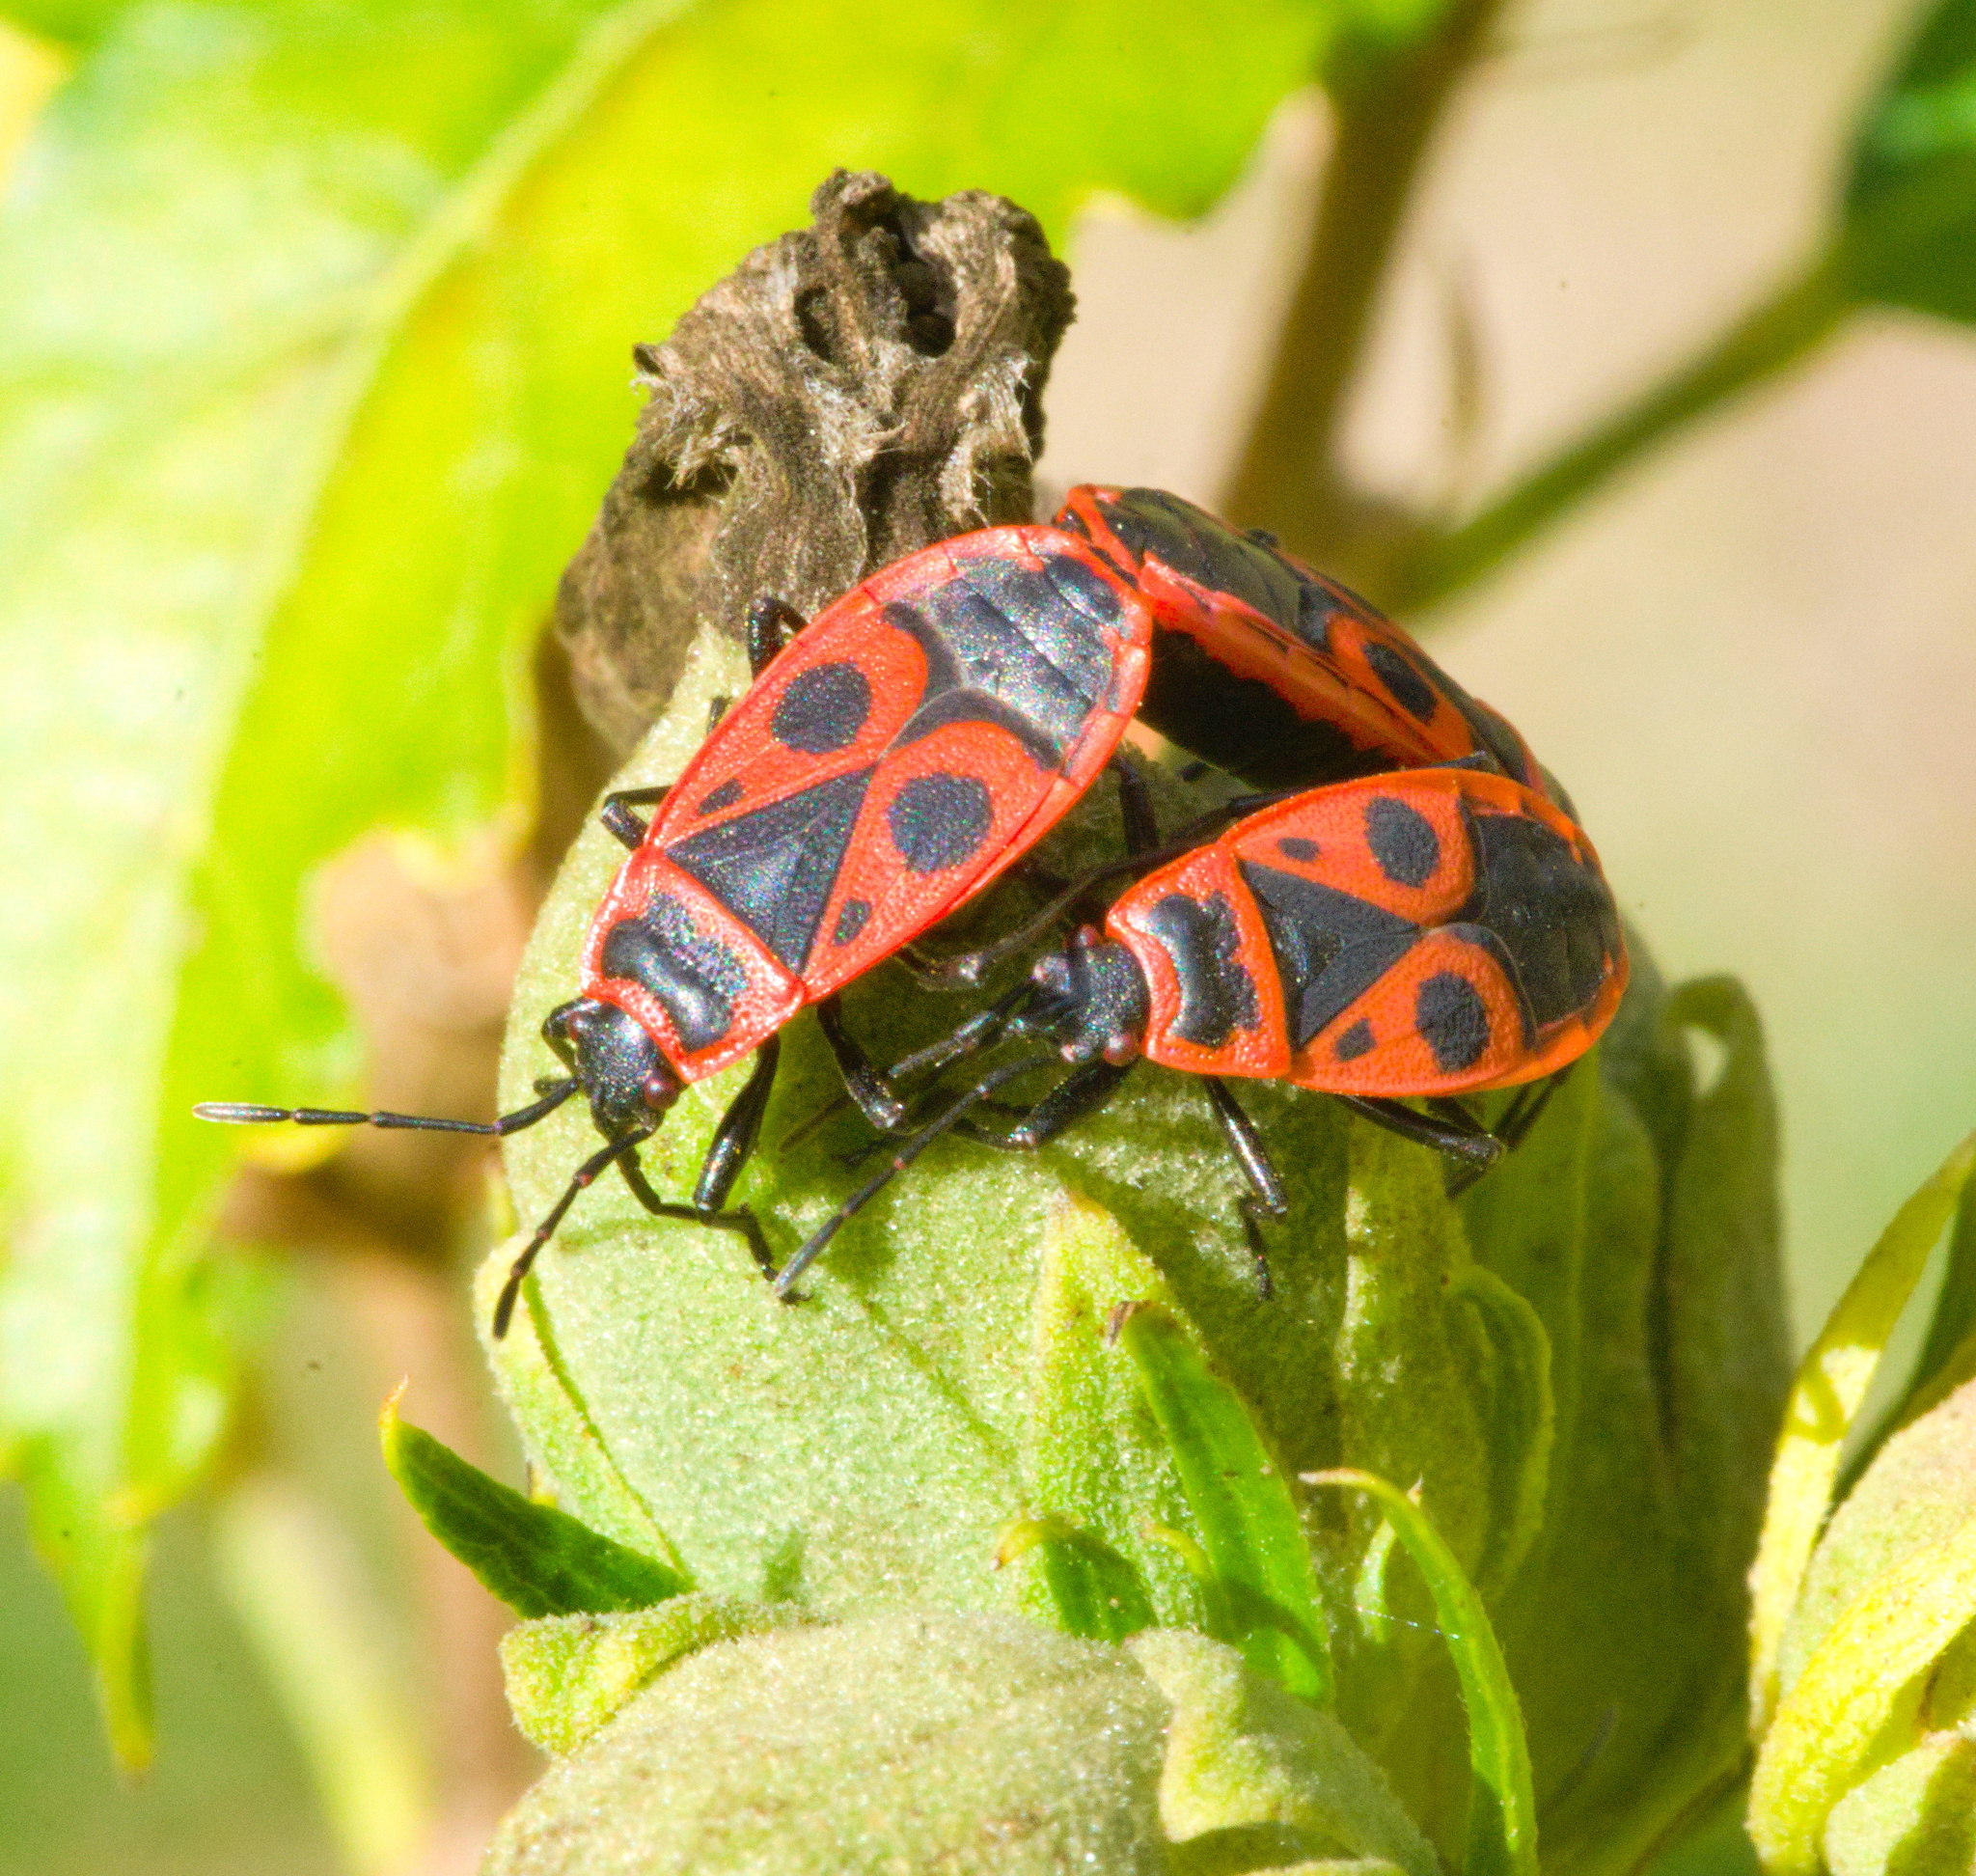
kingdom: Animalia
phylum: Arthropoda
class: Insecta
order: Hemiptera
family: Pyrrhocoridae
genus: Pyrrhocoris
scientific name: Pyrrhocoris apterus
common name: Firebug
